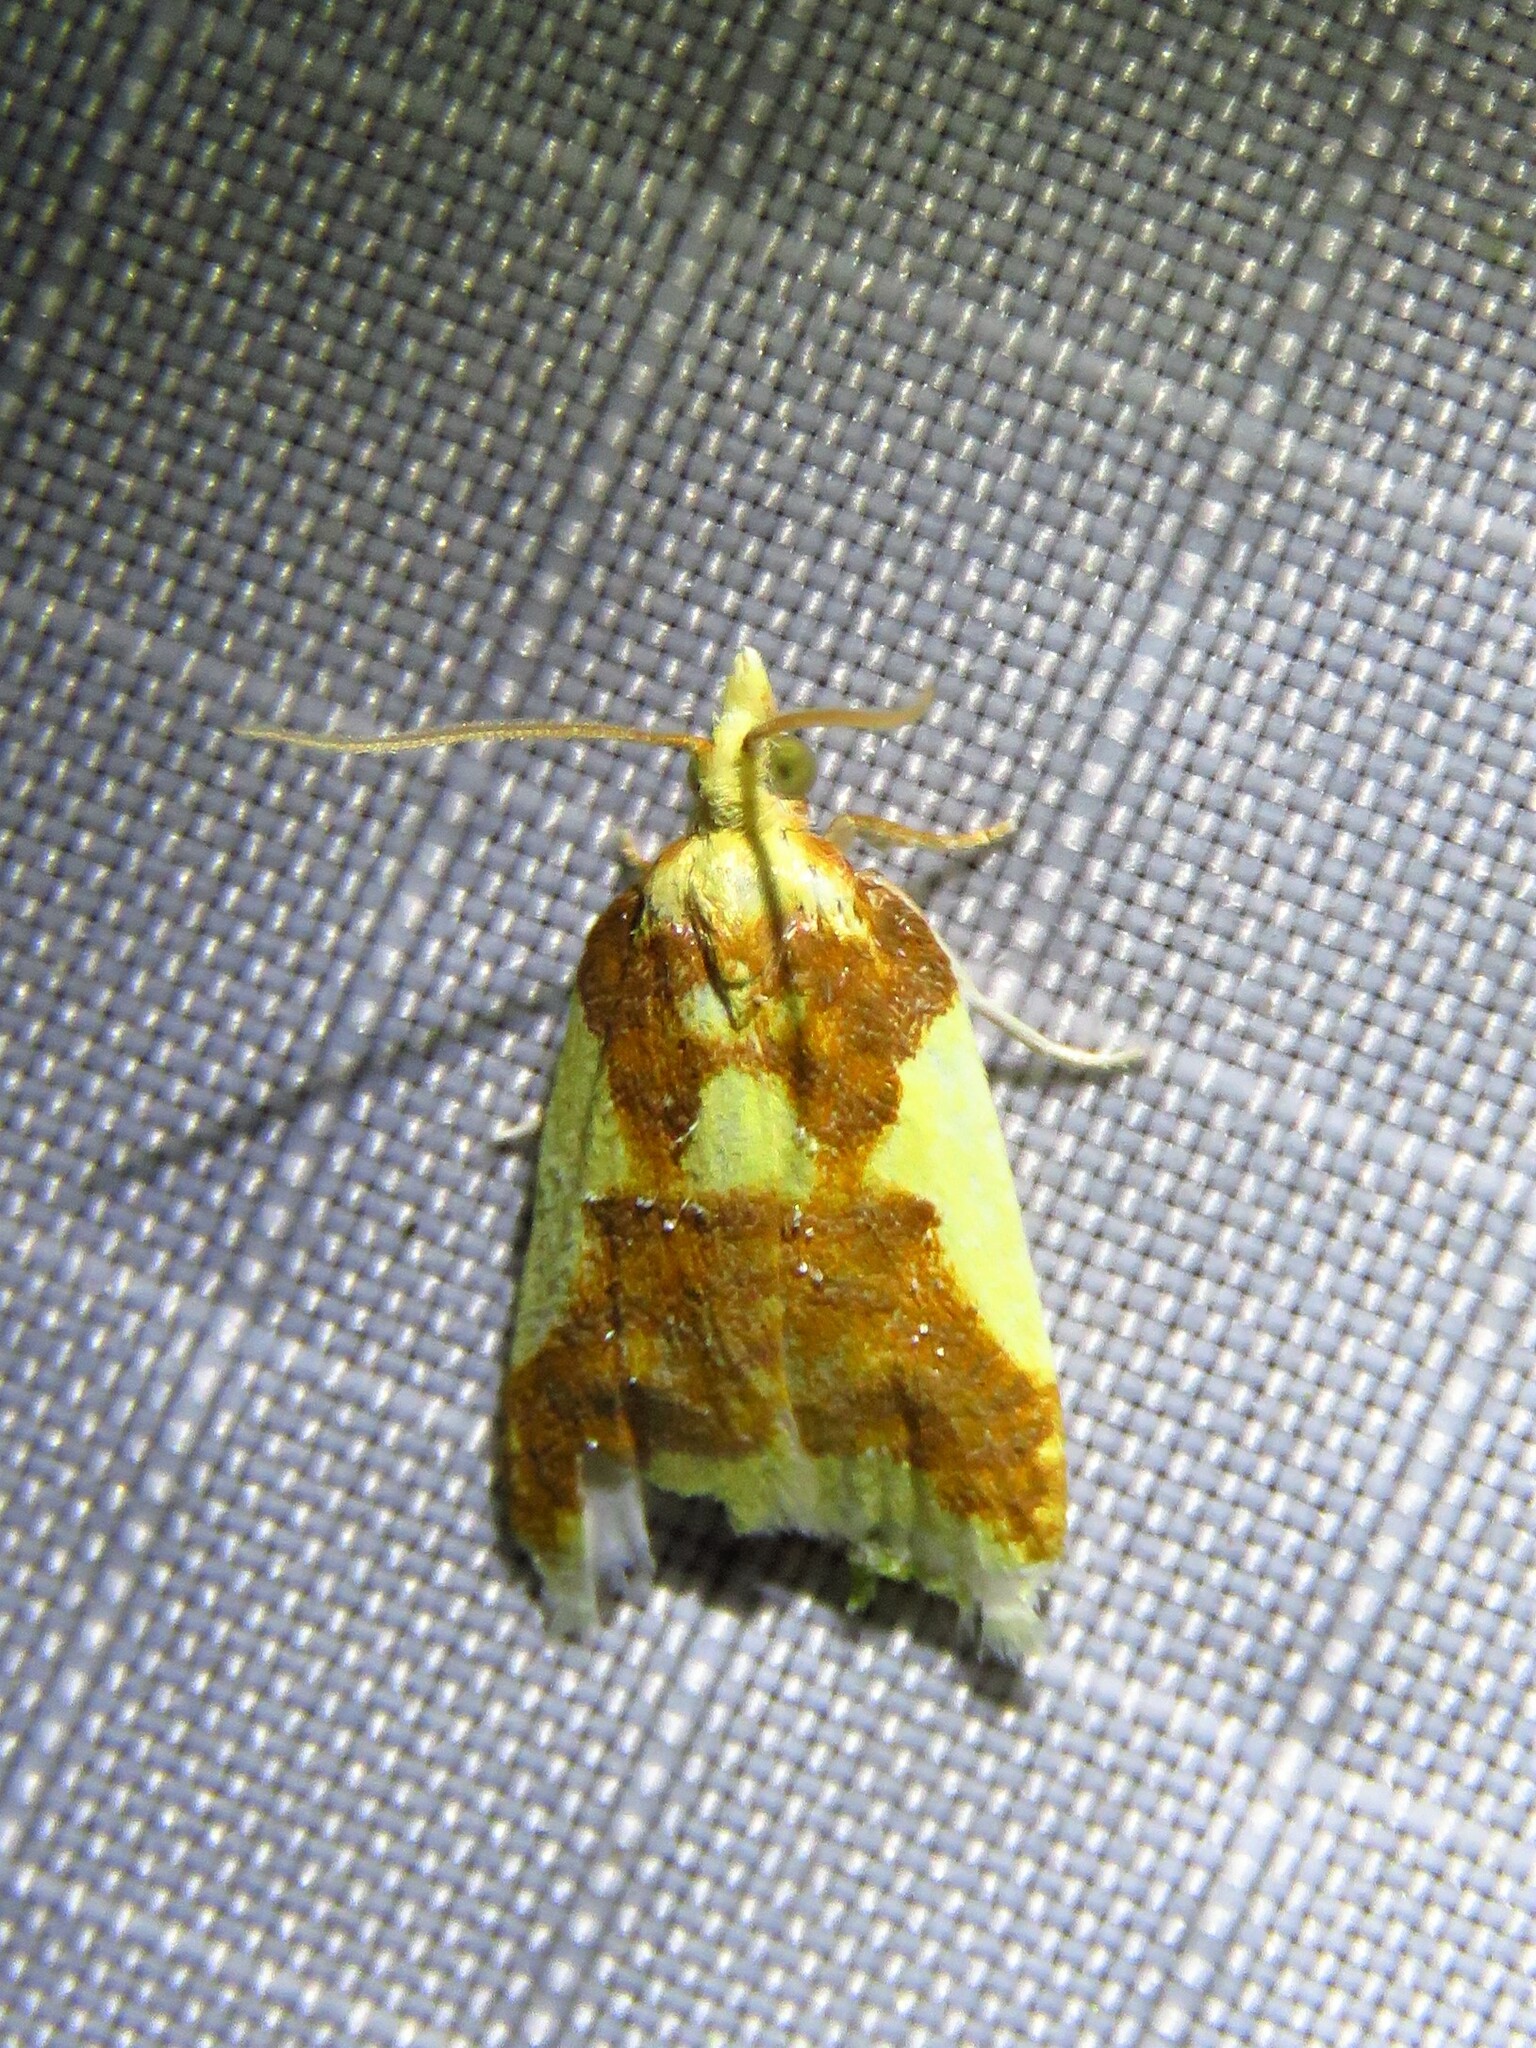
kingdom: Animalia
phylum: Arthropoda
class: Insecta
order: Lepidoptera
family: Tortricidae
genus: Sparganothis
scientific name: Sparganothis pulcherrimana
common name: Beautiful sparganothis
